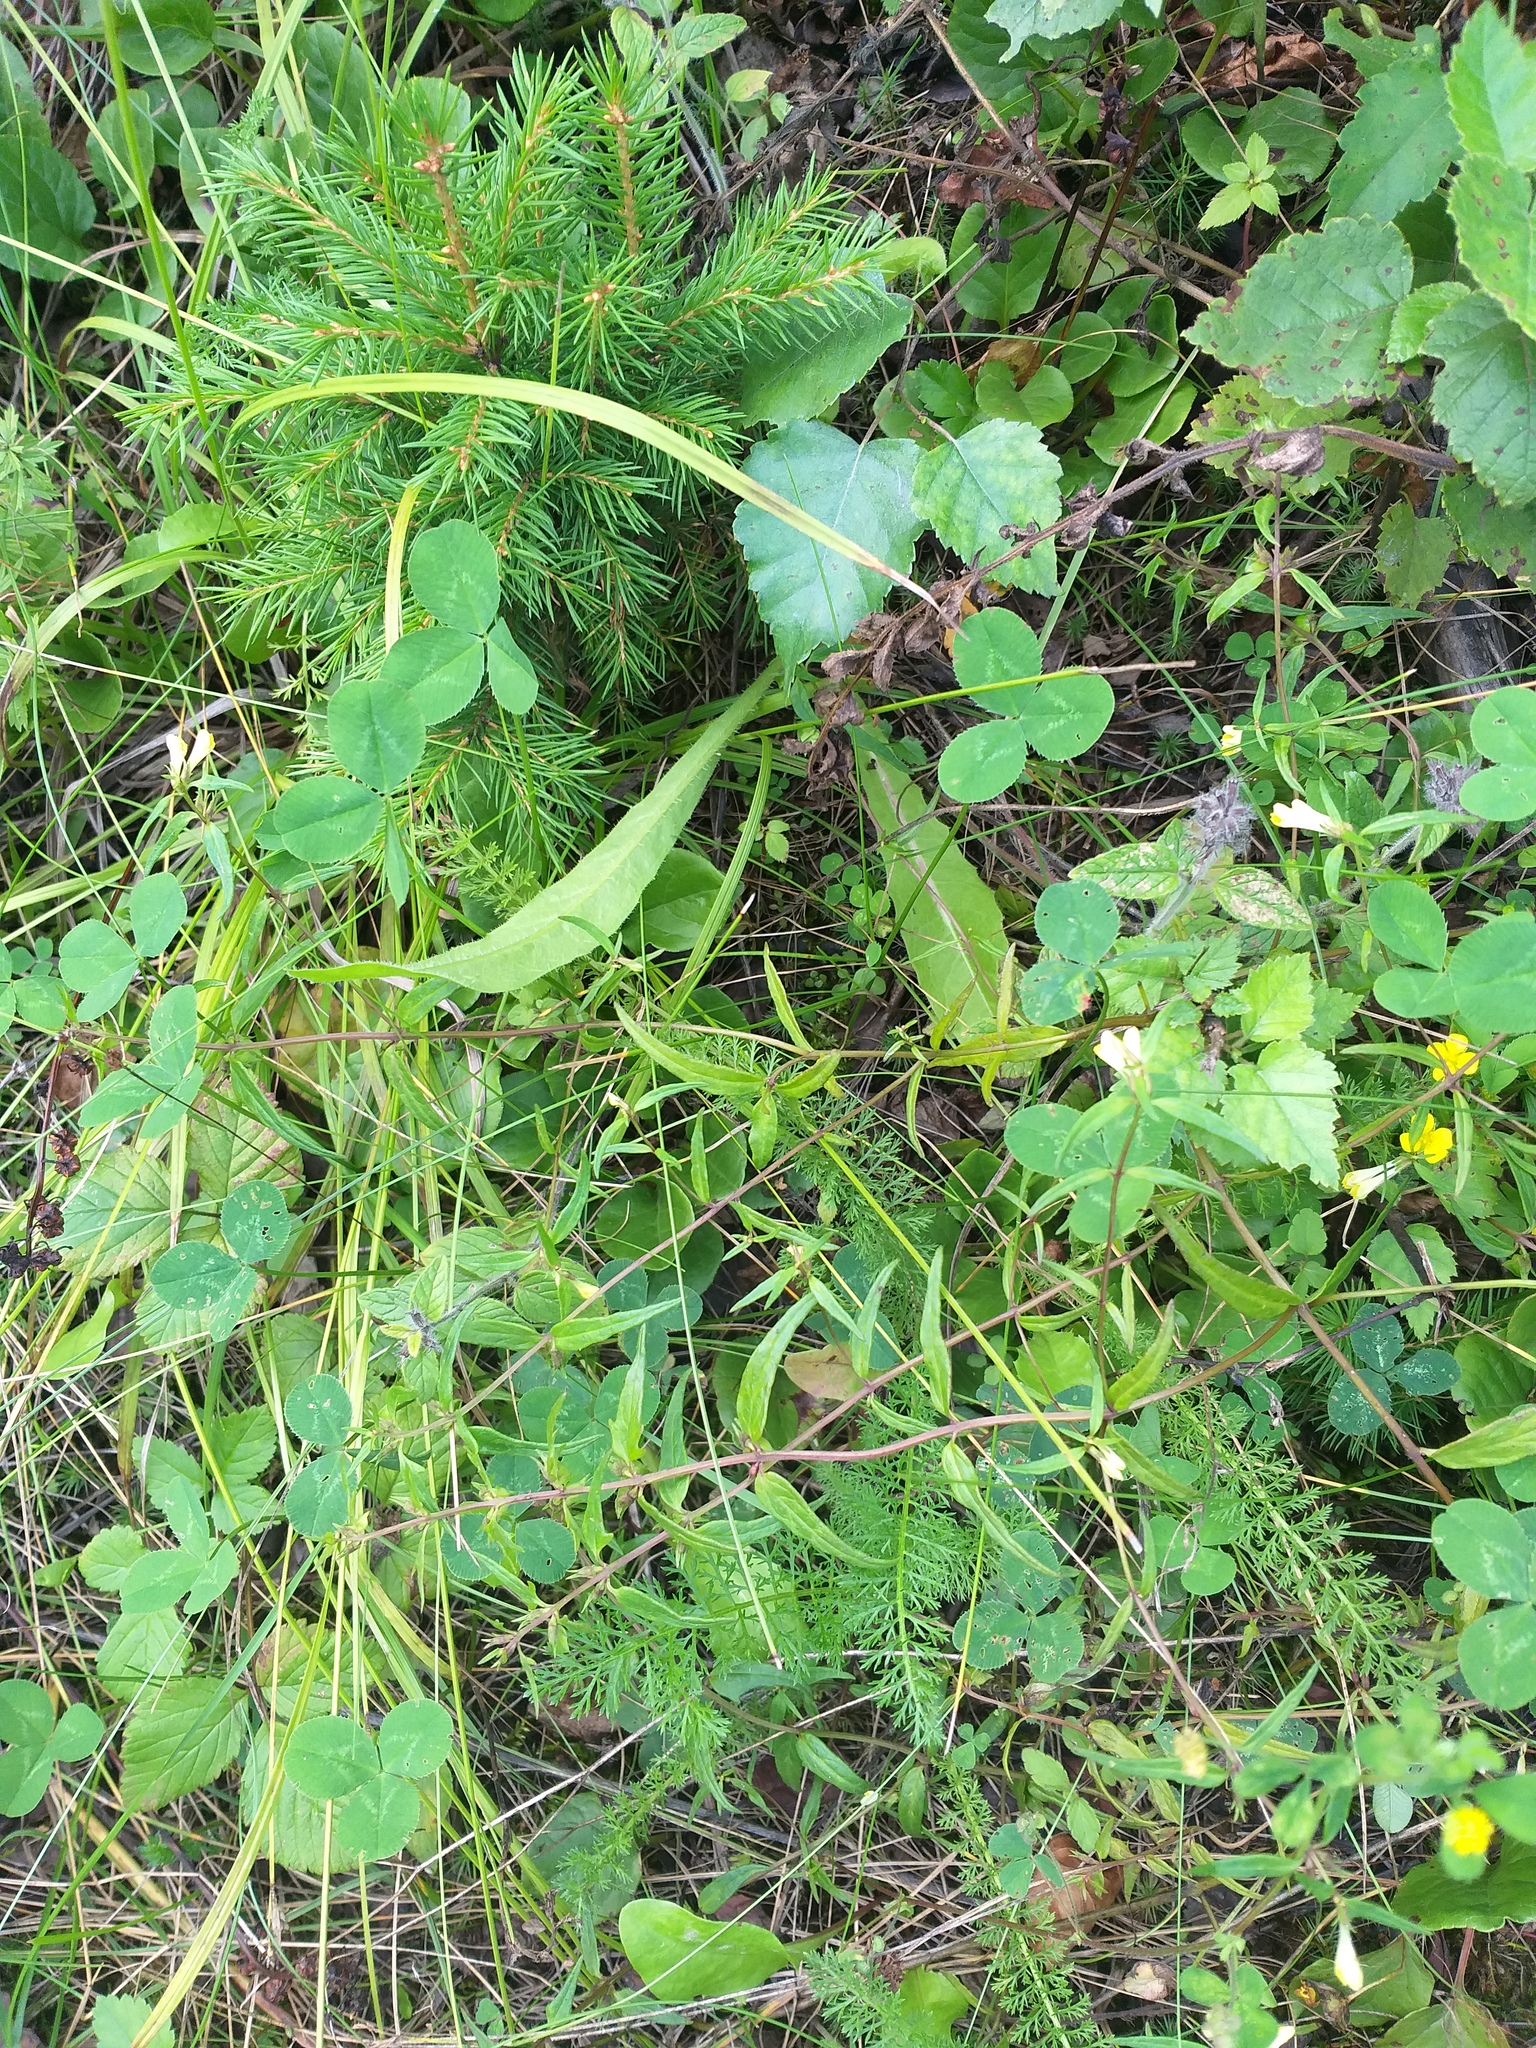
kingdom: Plantae
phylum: Tracheophyta
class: Magnoliopsida
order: Lamiales
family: Orobanchaceae
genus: Melampyrum
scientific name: Melampyrum pratense
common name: Common cow-wheat
